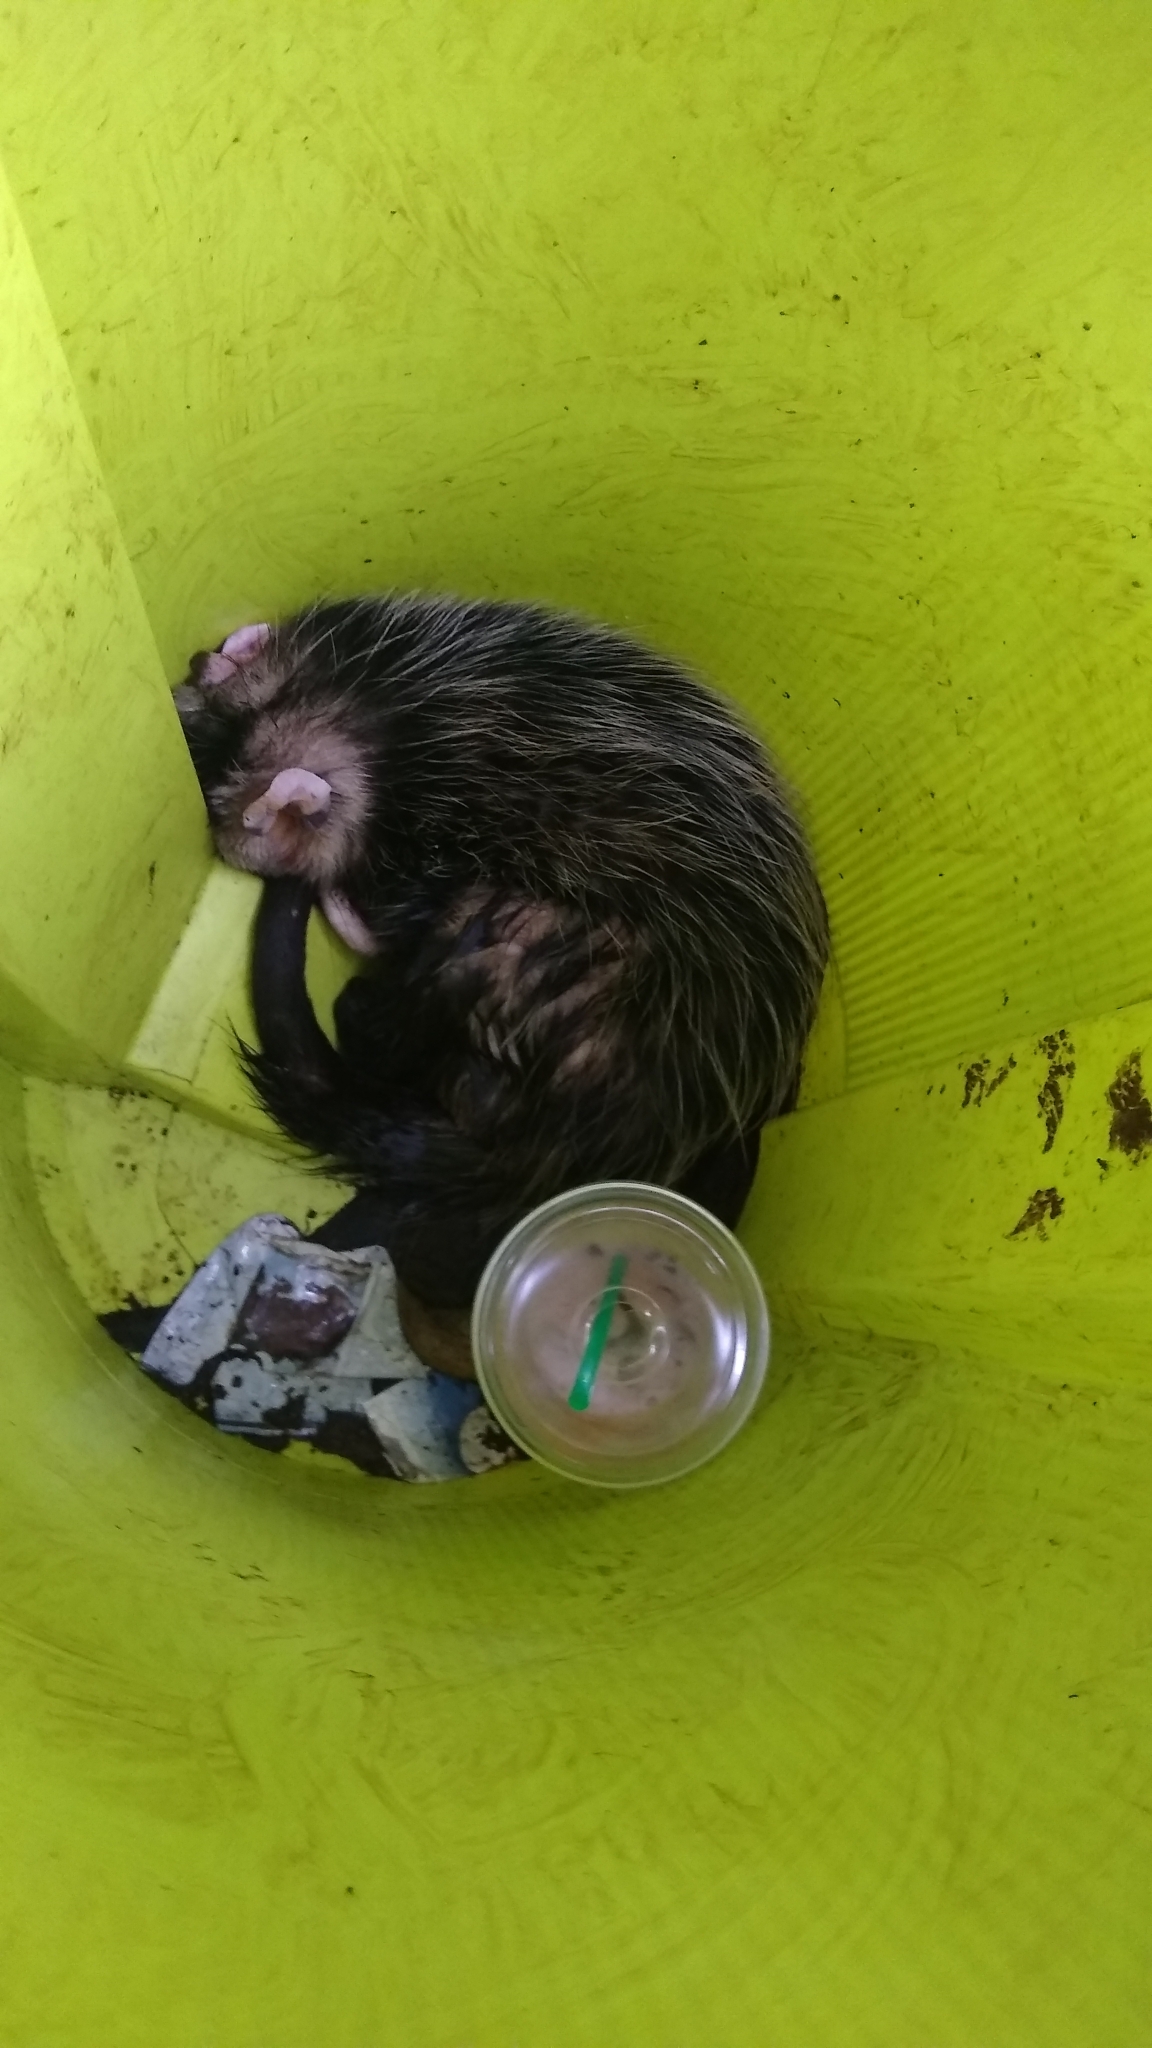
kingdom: Animalia
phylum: Chordata
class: Mammalia
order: Didelphimorphia
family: Didelphidae
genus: Didelphis
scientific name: Didelphis albiventris
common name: White-eared opossum
